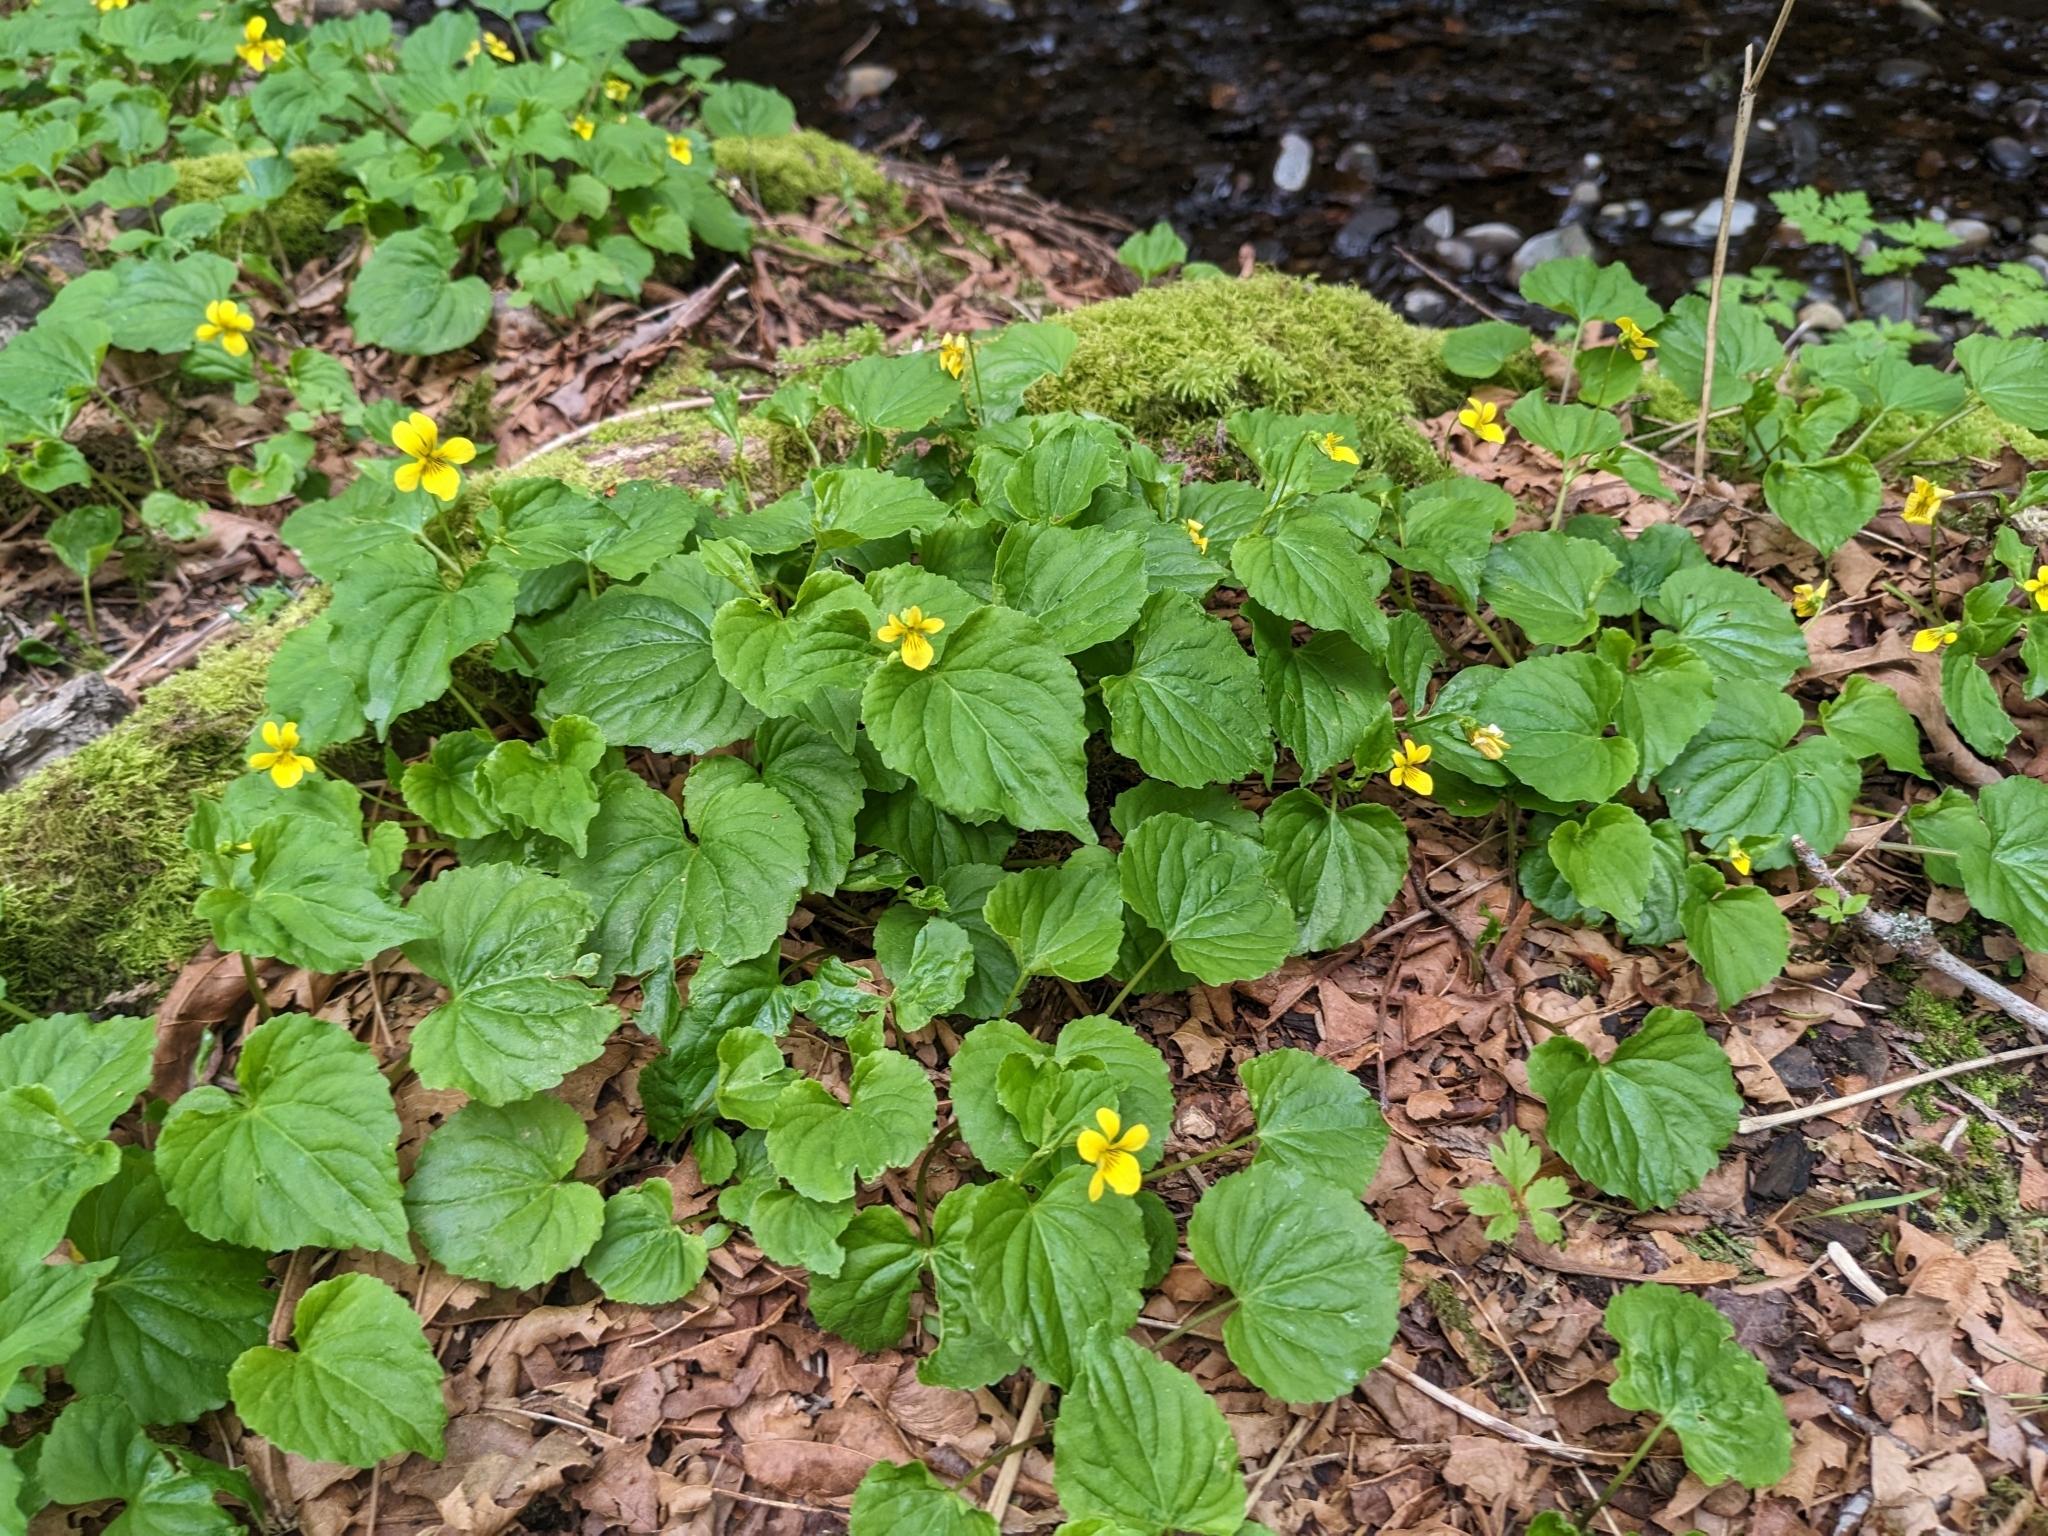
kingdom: Plantae
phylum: Tracheophyta
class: Magnoliopsida
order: Malpighiales
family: Violaceae
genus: Viola
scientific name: Viola glabella
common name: Stream violet
